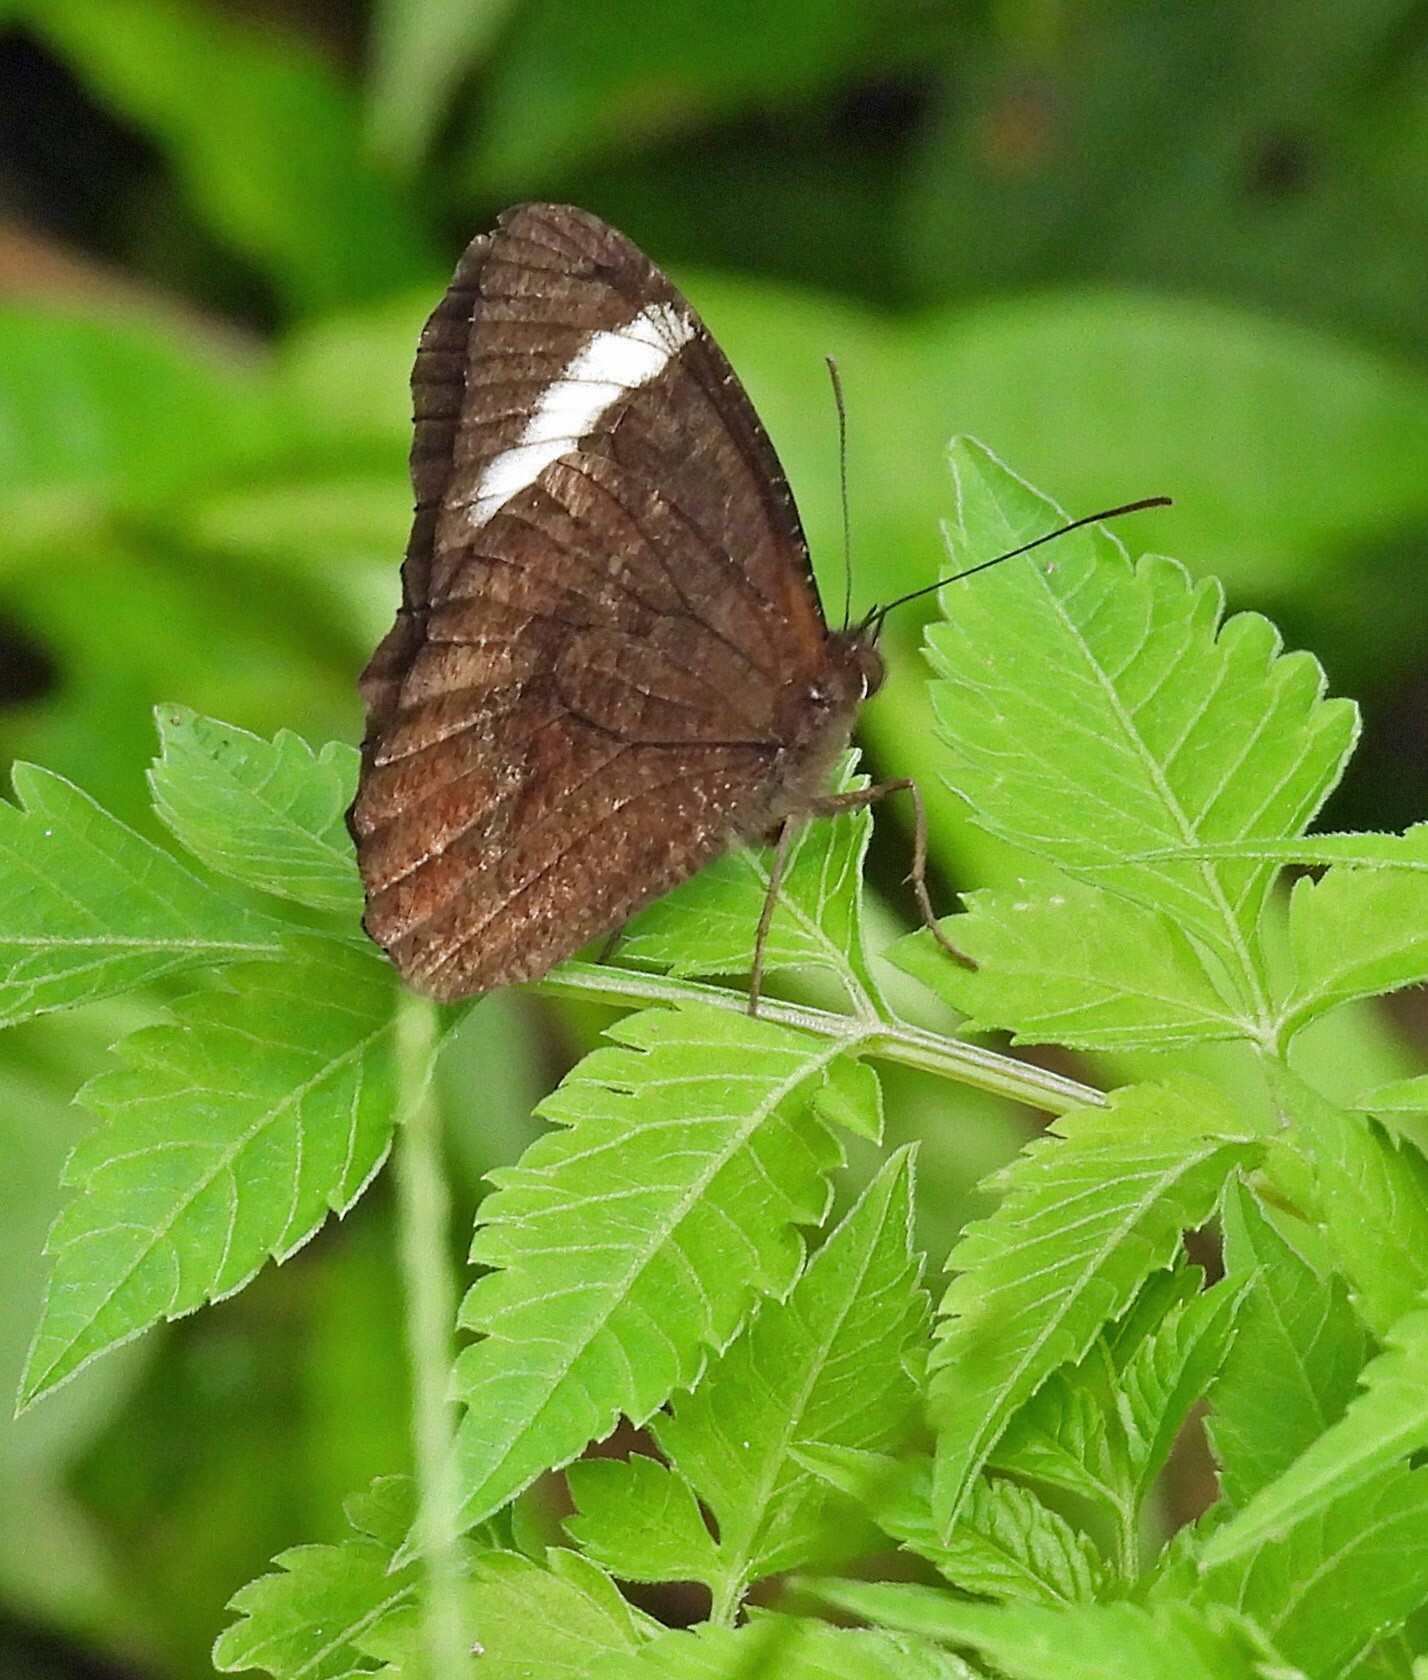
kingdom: Animalia
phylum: Arthropoda
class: Insecta
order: Lepidoptera
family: Nymphalidae
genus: Pedaliodes
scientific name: Pedaliodes porina
